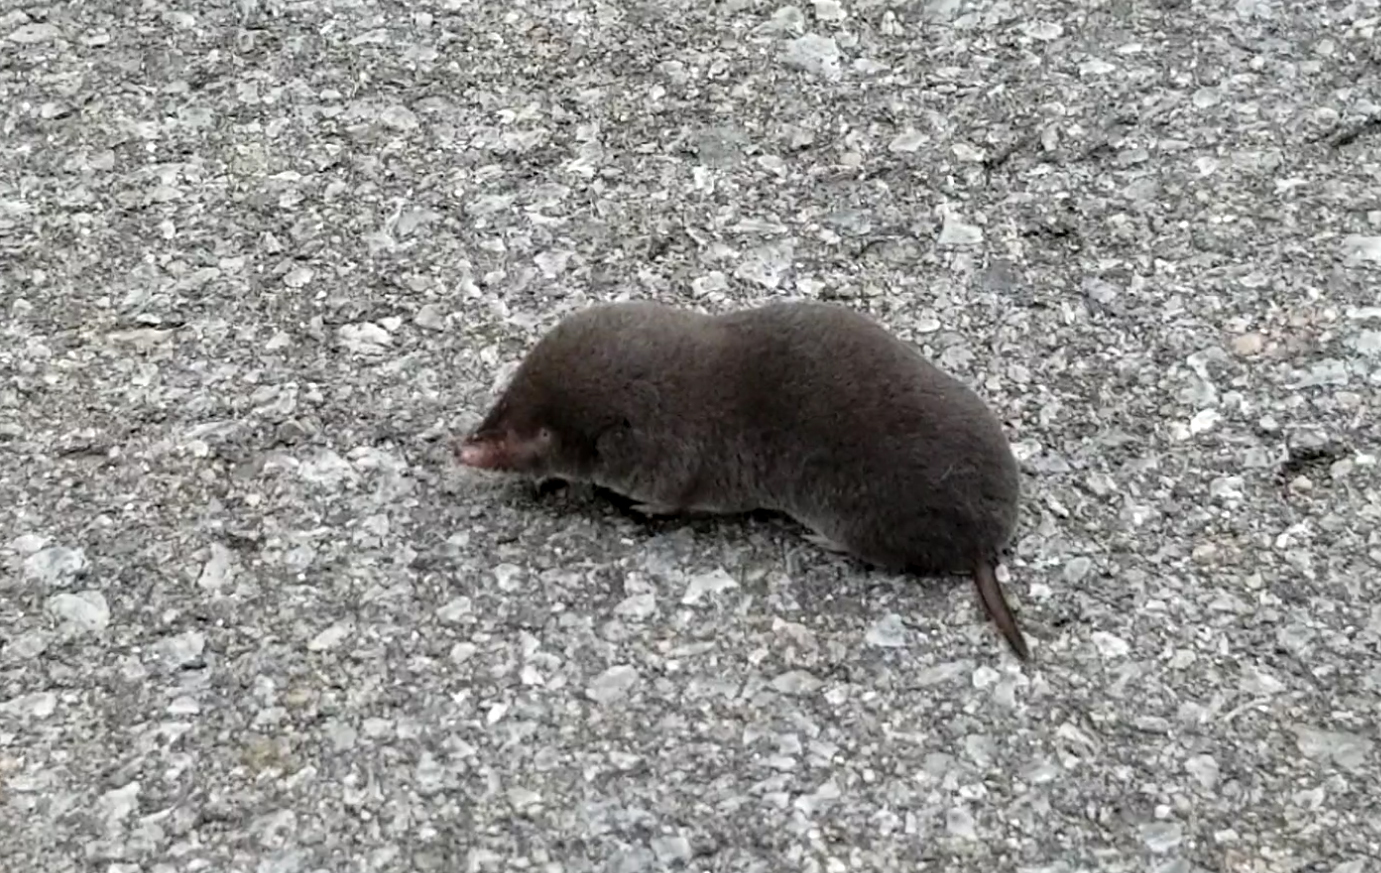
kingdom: Animalia
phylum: Chordata
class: Mammalia
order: Soricomorpha
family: Soricidae
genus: Blarina
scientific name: Blarina brevicauda
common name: Northern short-tailed shrew
